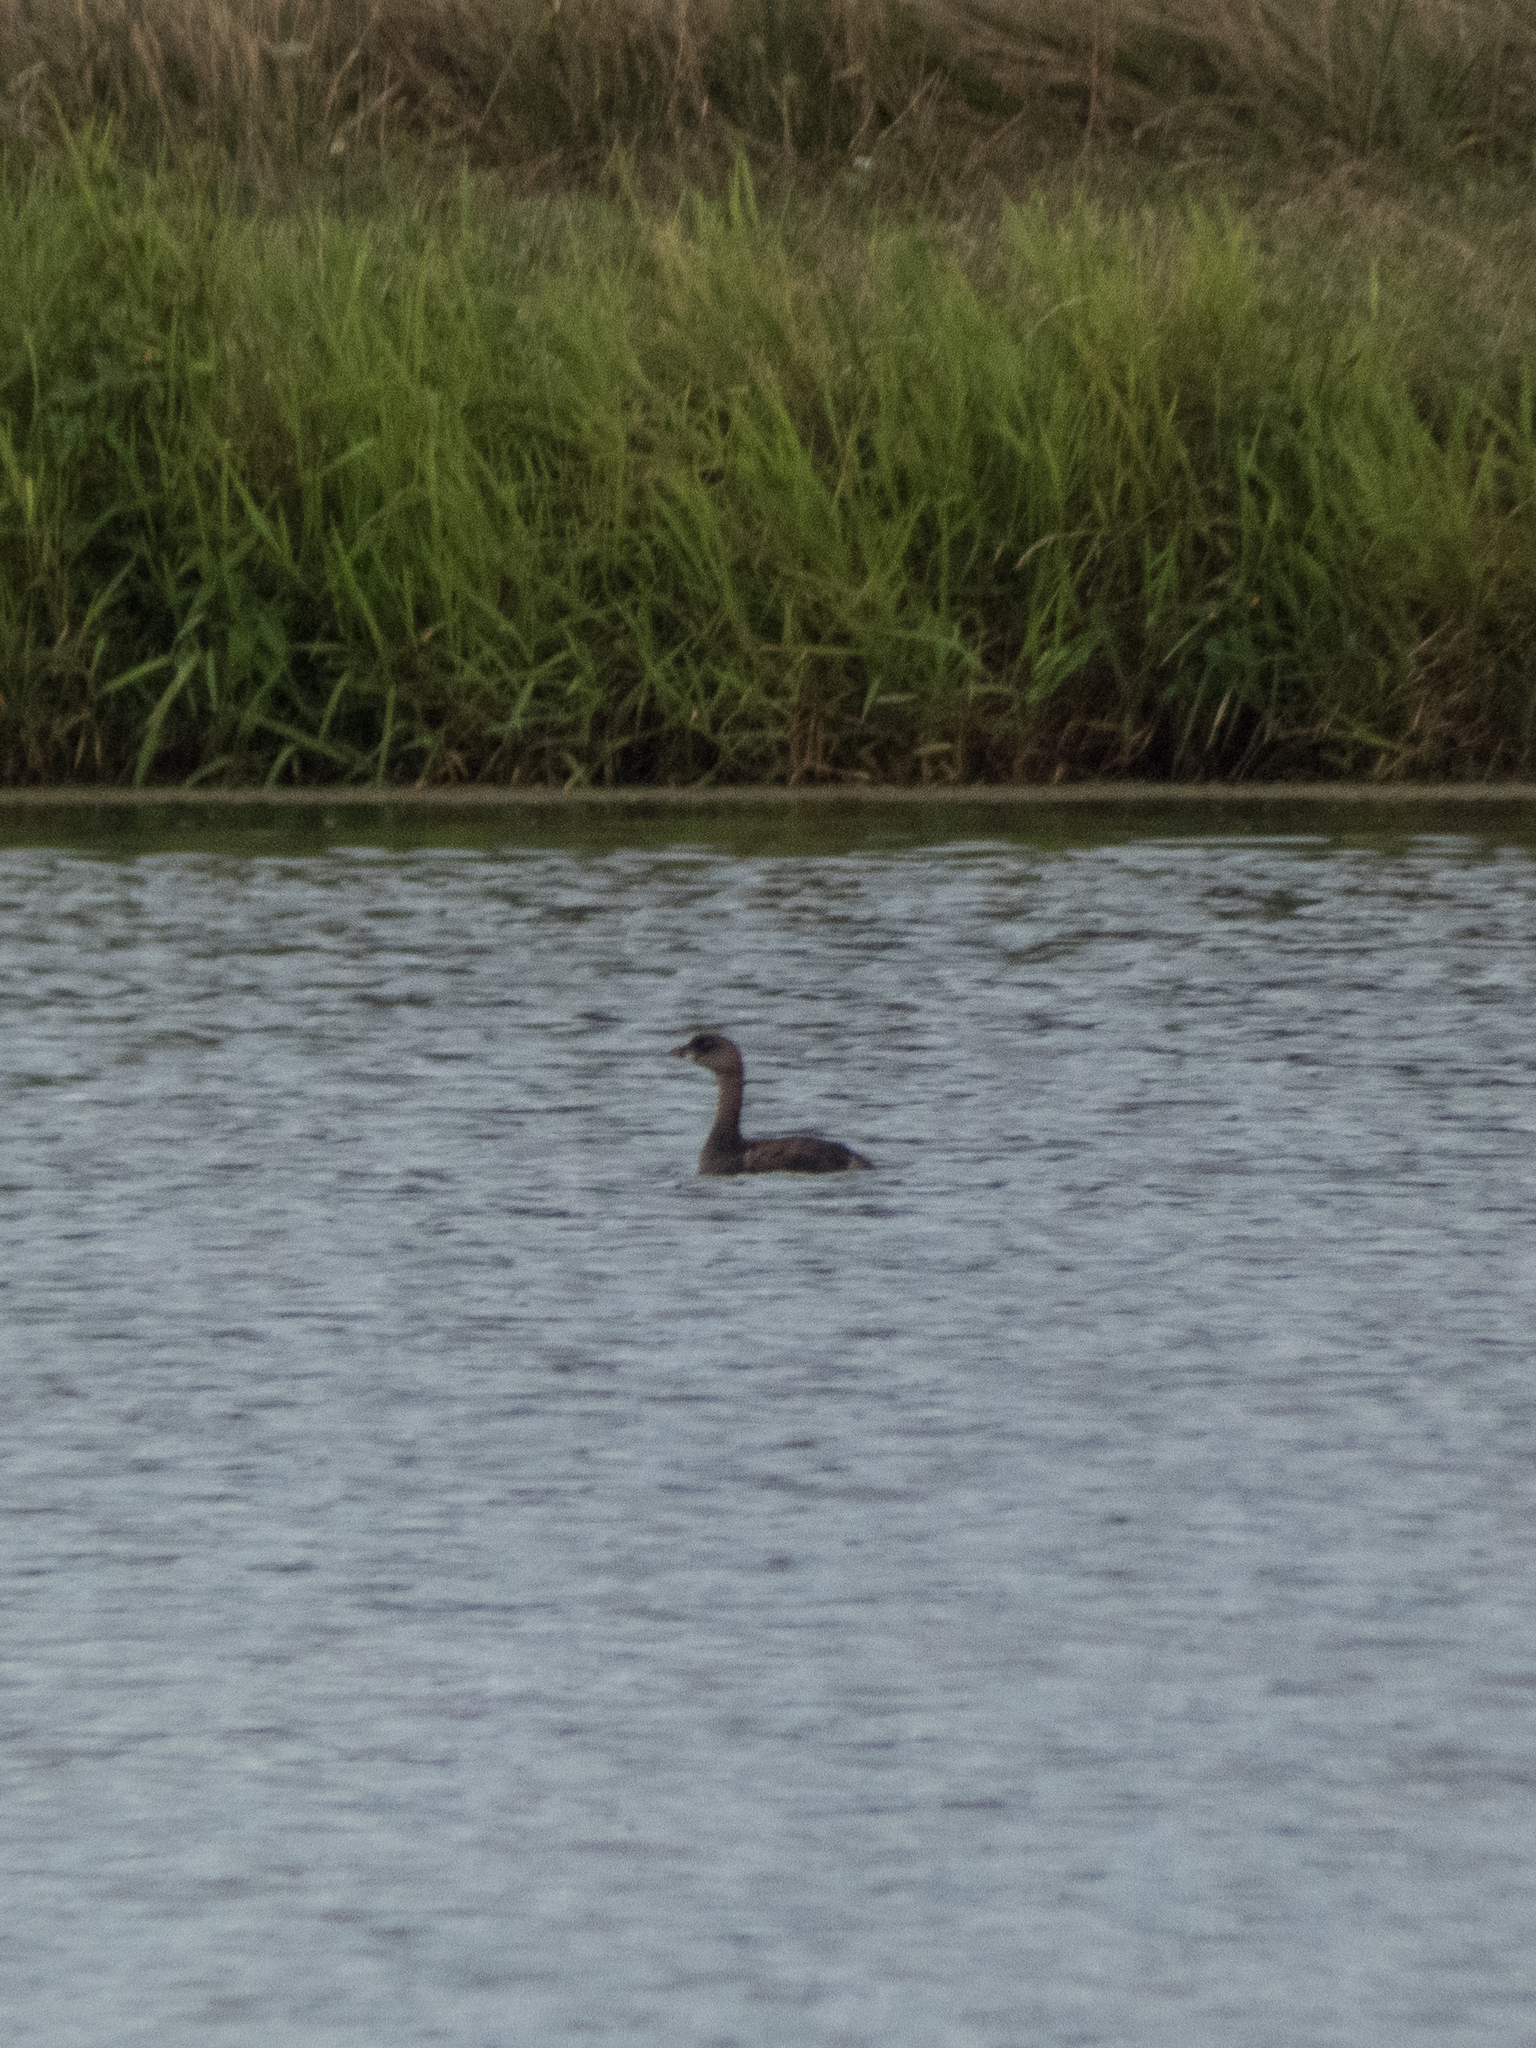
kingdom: Animalia
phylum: Chordata
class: Aves
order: Podicipediformes
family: Podicipedidae
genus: Podilymbus
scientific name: Podilymbus podiceps
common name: Pied-billed grebe
